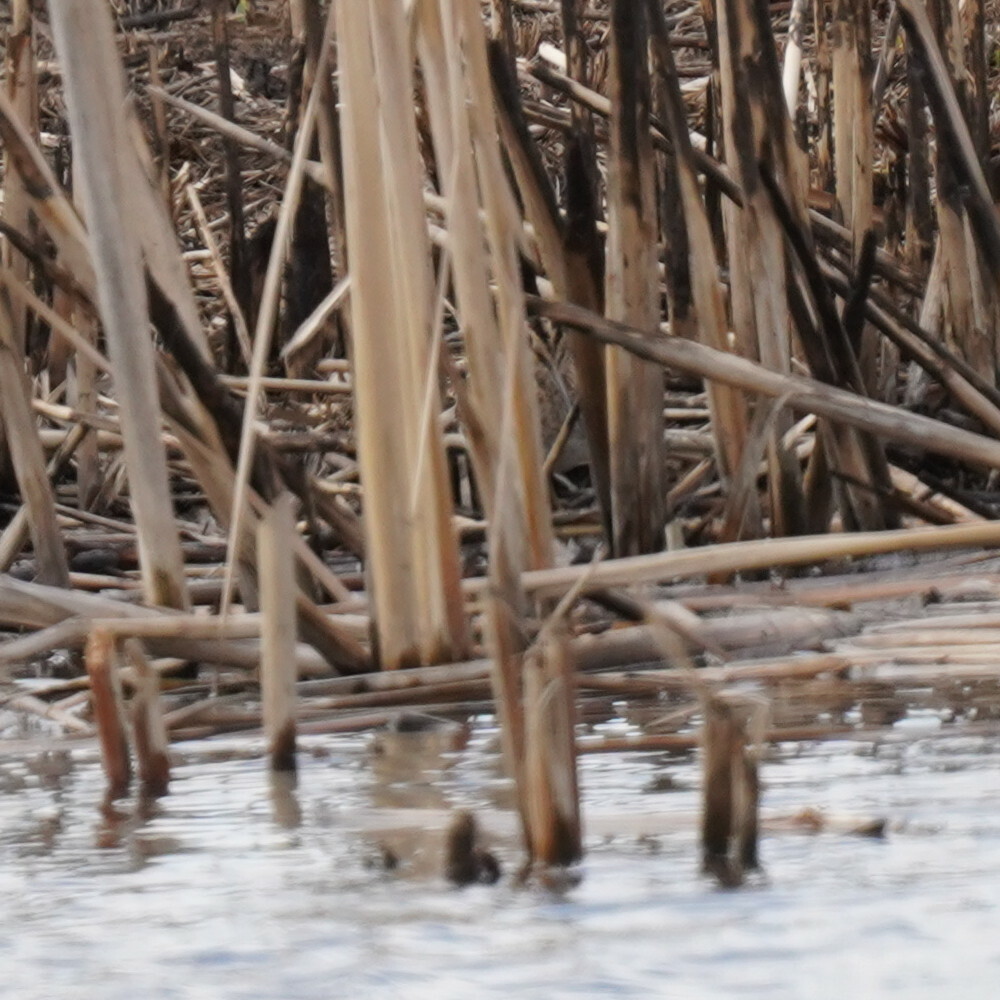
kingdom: Animalia
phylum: Chordata
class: Aves
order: Charadriiformes
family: Scolopacidae
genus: Gallinago
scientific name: Gallinago delicata
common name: Wilson's snipe
